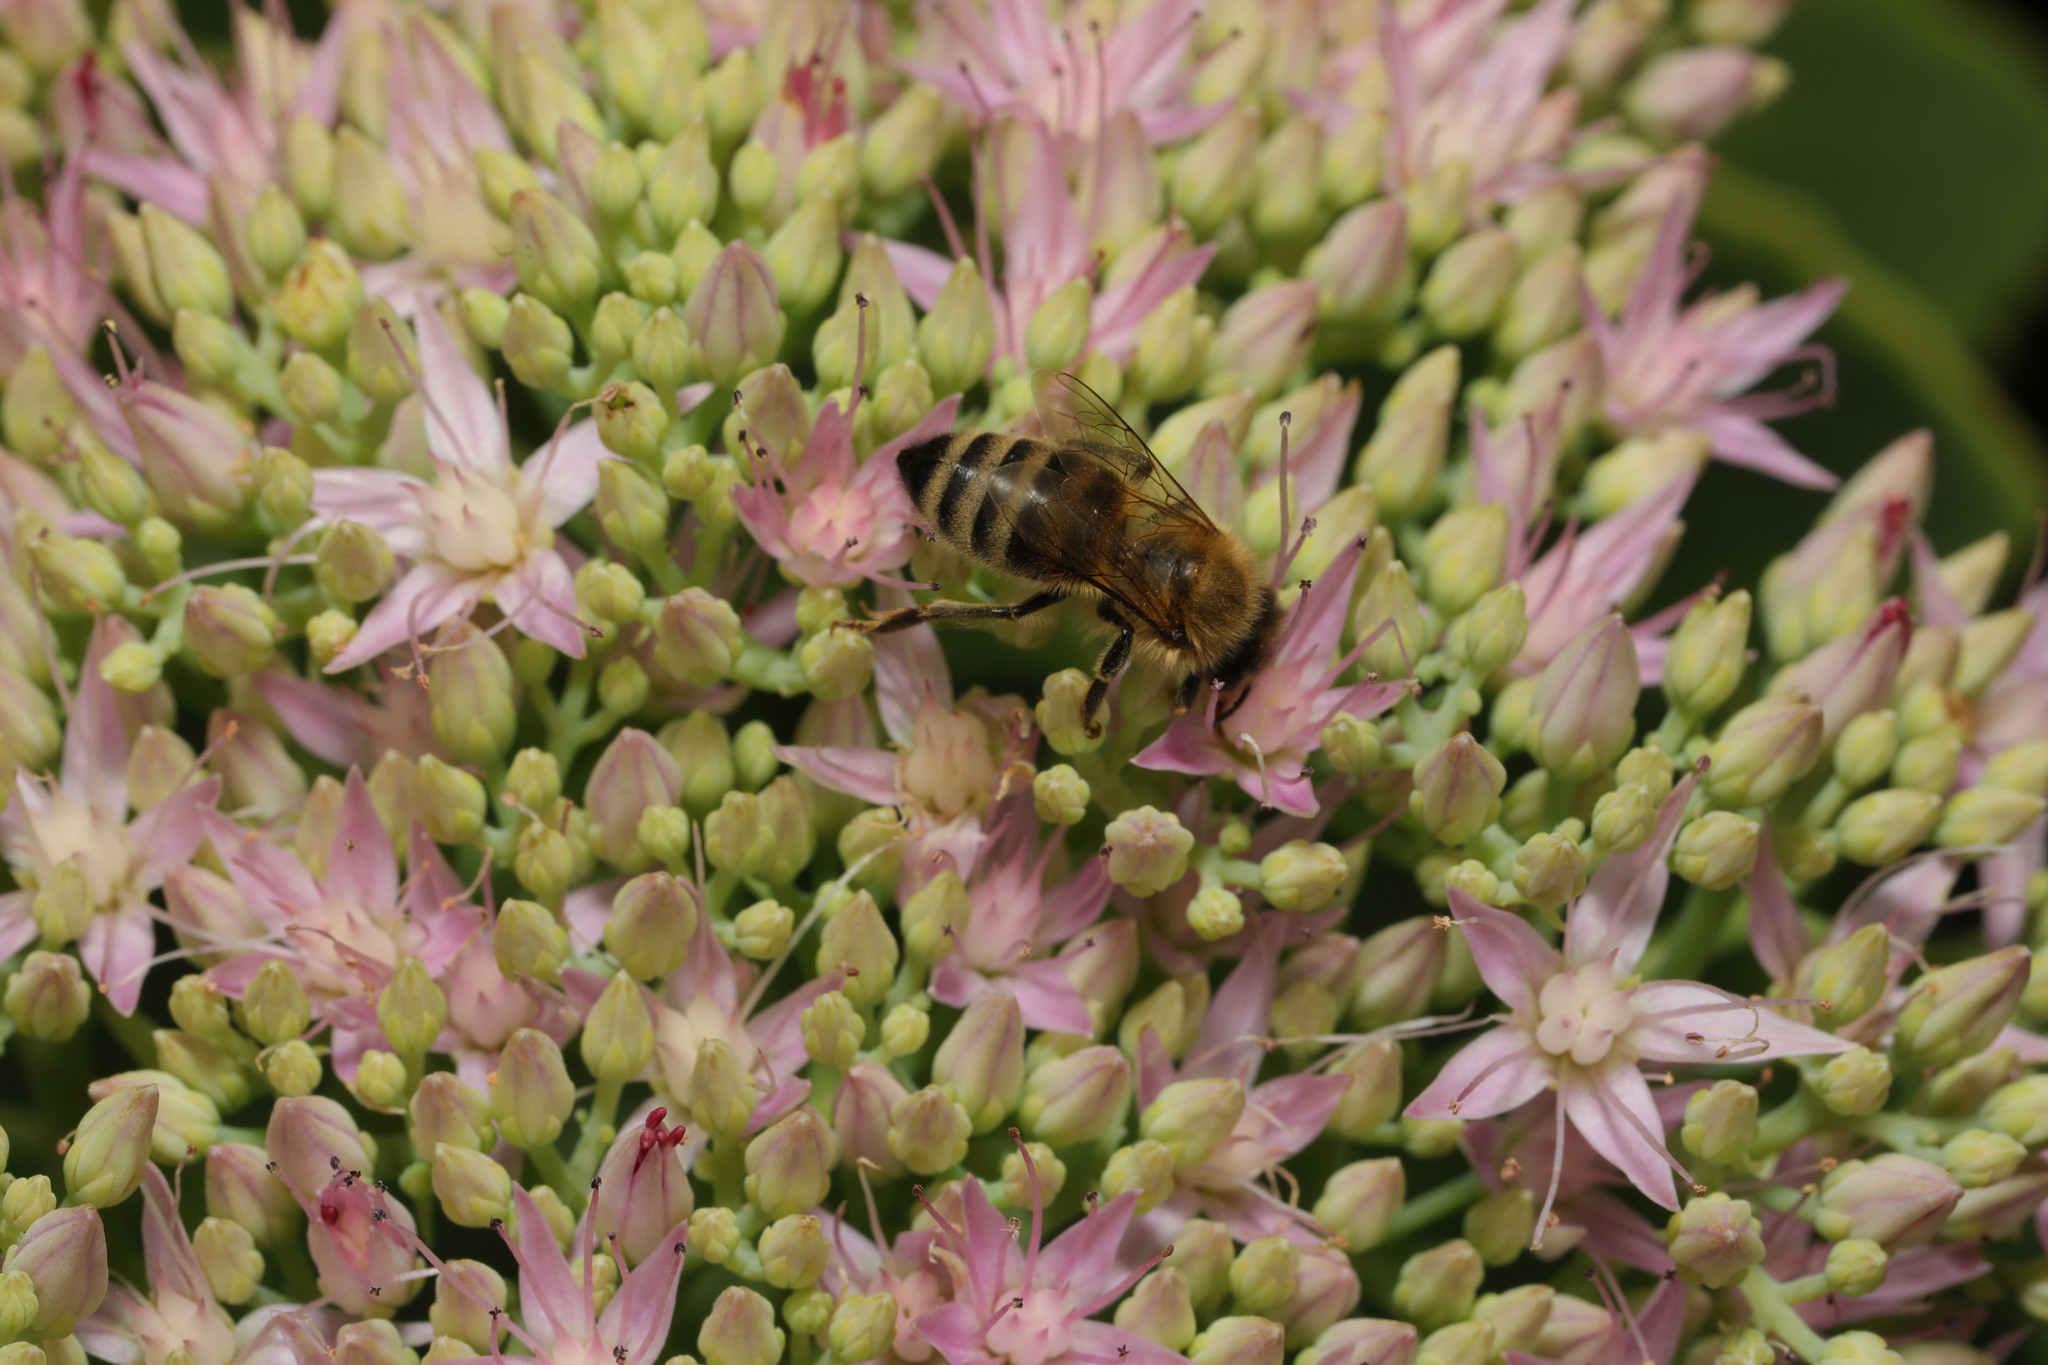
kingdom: Animalia
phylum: Arthropoda
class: Insecta
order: Hymenoptera
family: Apidae
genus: Apis
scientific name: Apis mellifera
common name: Honey bee
